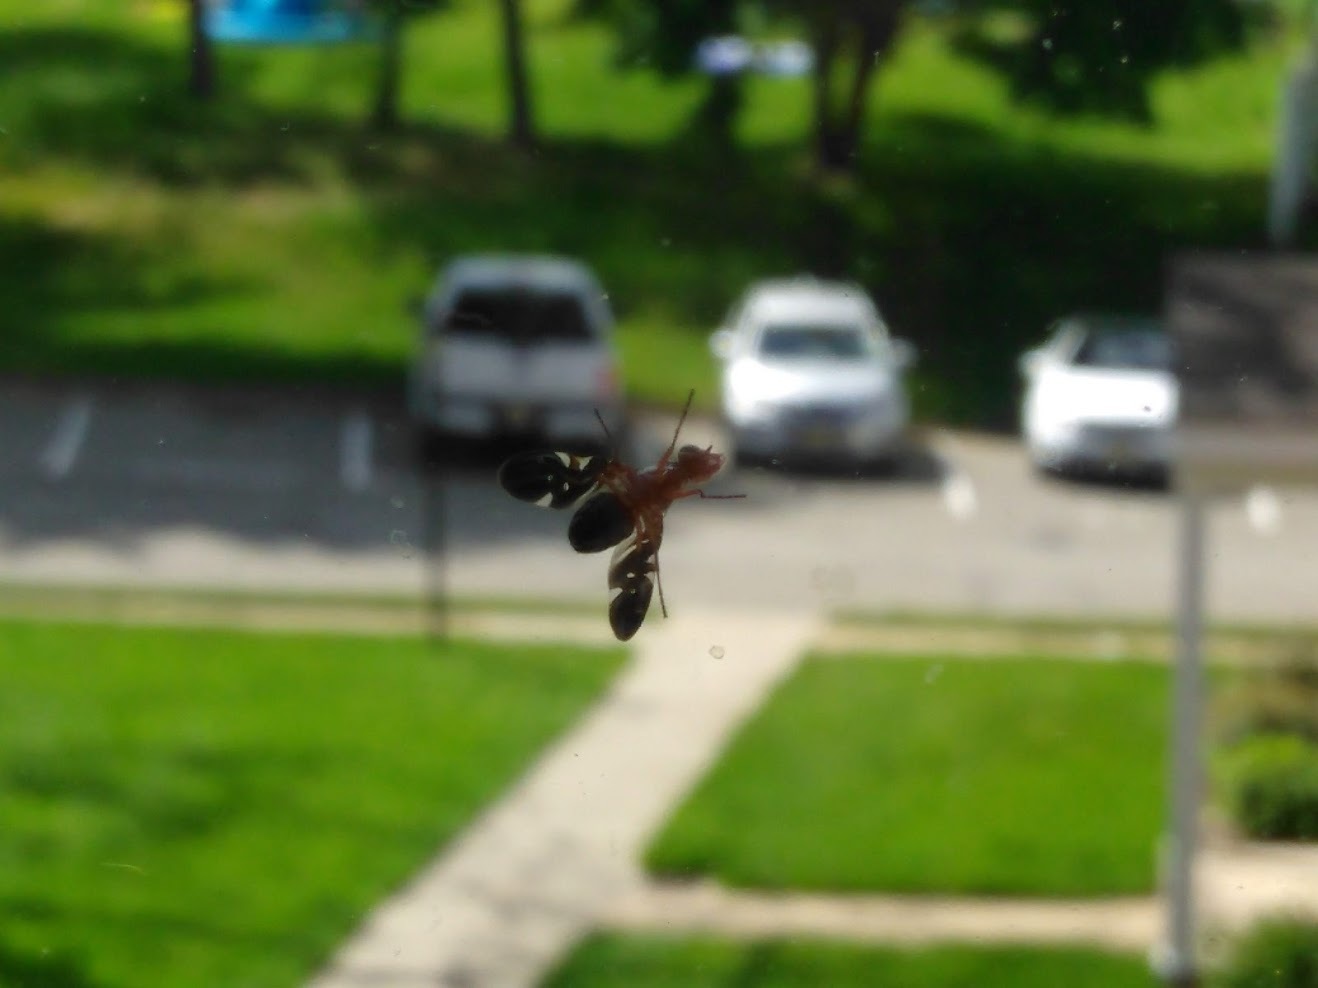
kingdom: Animalia
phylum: Arthropoda
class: Insecta
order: Diptera
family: Ulidiidae
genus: Delphinia
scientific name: Delphinia picta
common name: Common picture-winged fly
